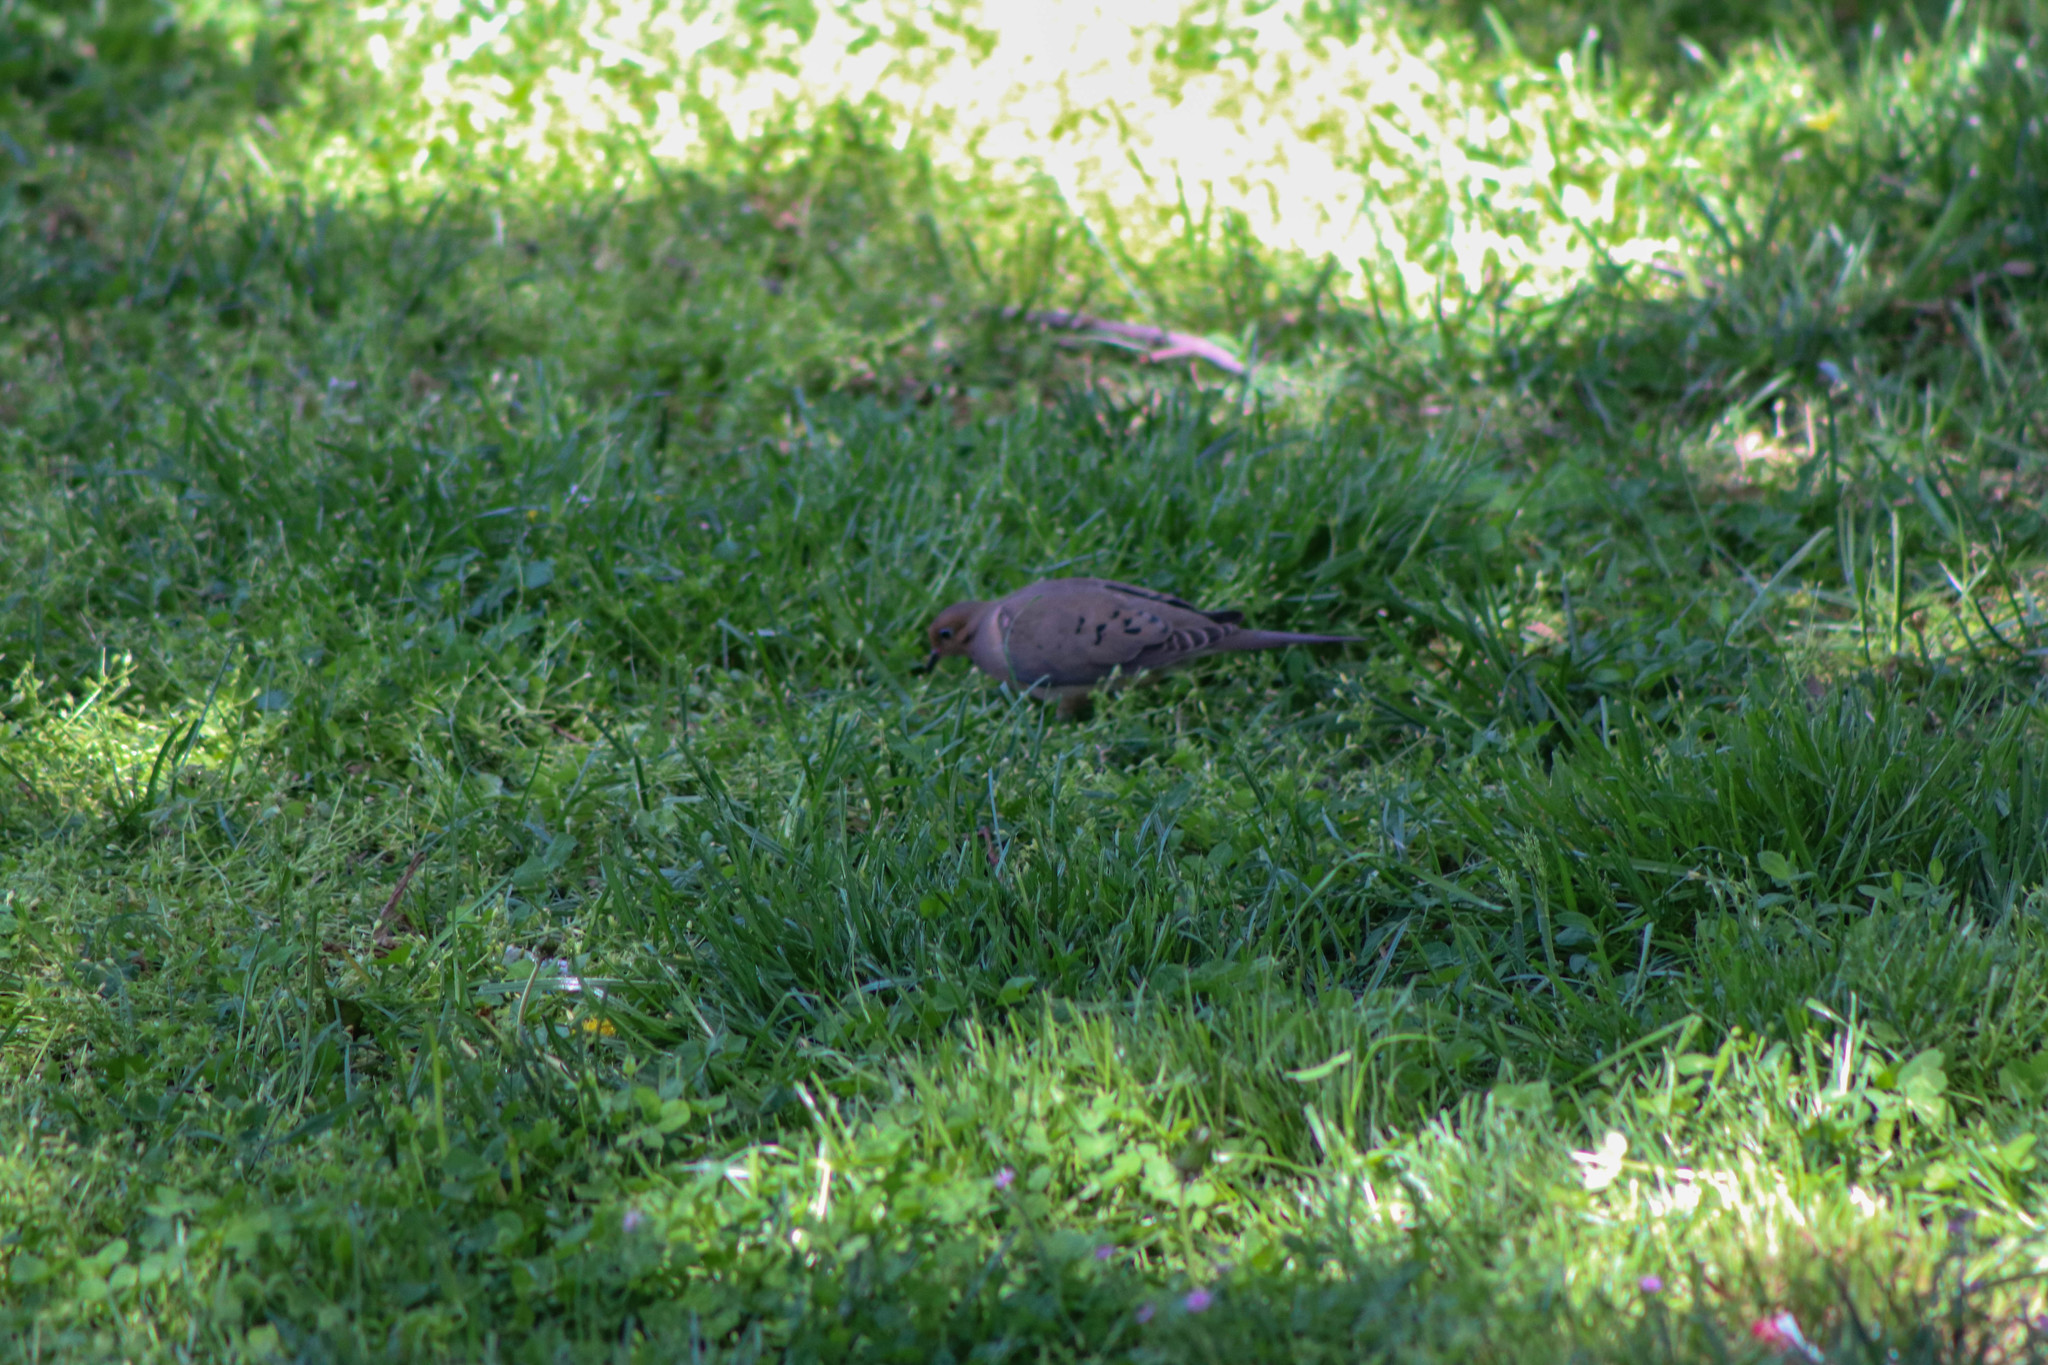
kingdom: Animalia
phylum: Chordata
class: Aves
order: Columbiformes
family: Columbidae
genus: Zenaida
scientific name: Zenaida macroura
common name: Mourning dove
